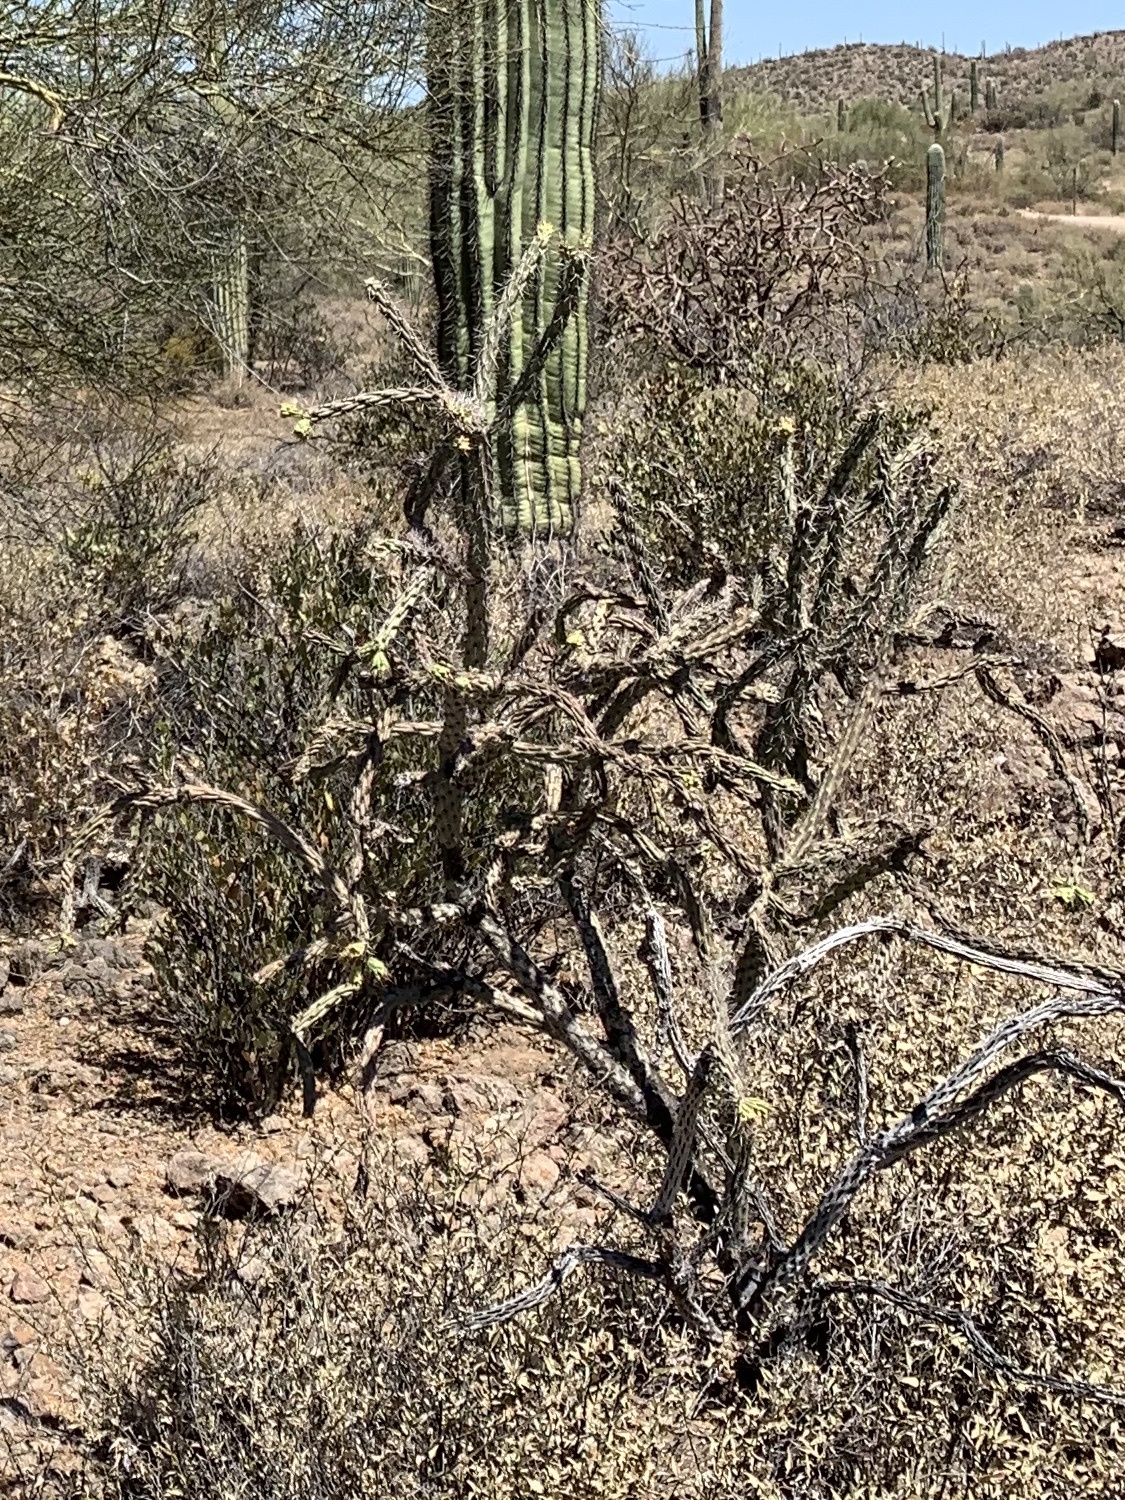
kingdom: Plantae
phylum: Tracheophyta
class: Magnoliopsida
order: Caryophyllales
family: Cactaceae
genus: Cylindropuntia
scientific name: Cylindropuntia acanthocarpa
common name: Buckhorn cholla
